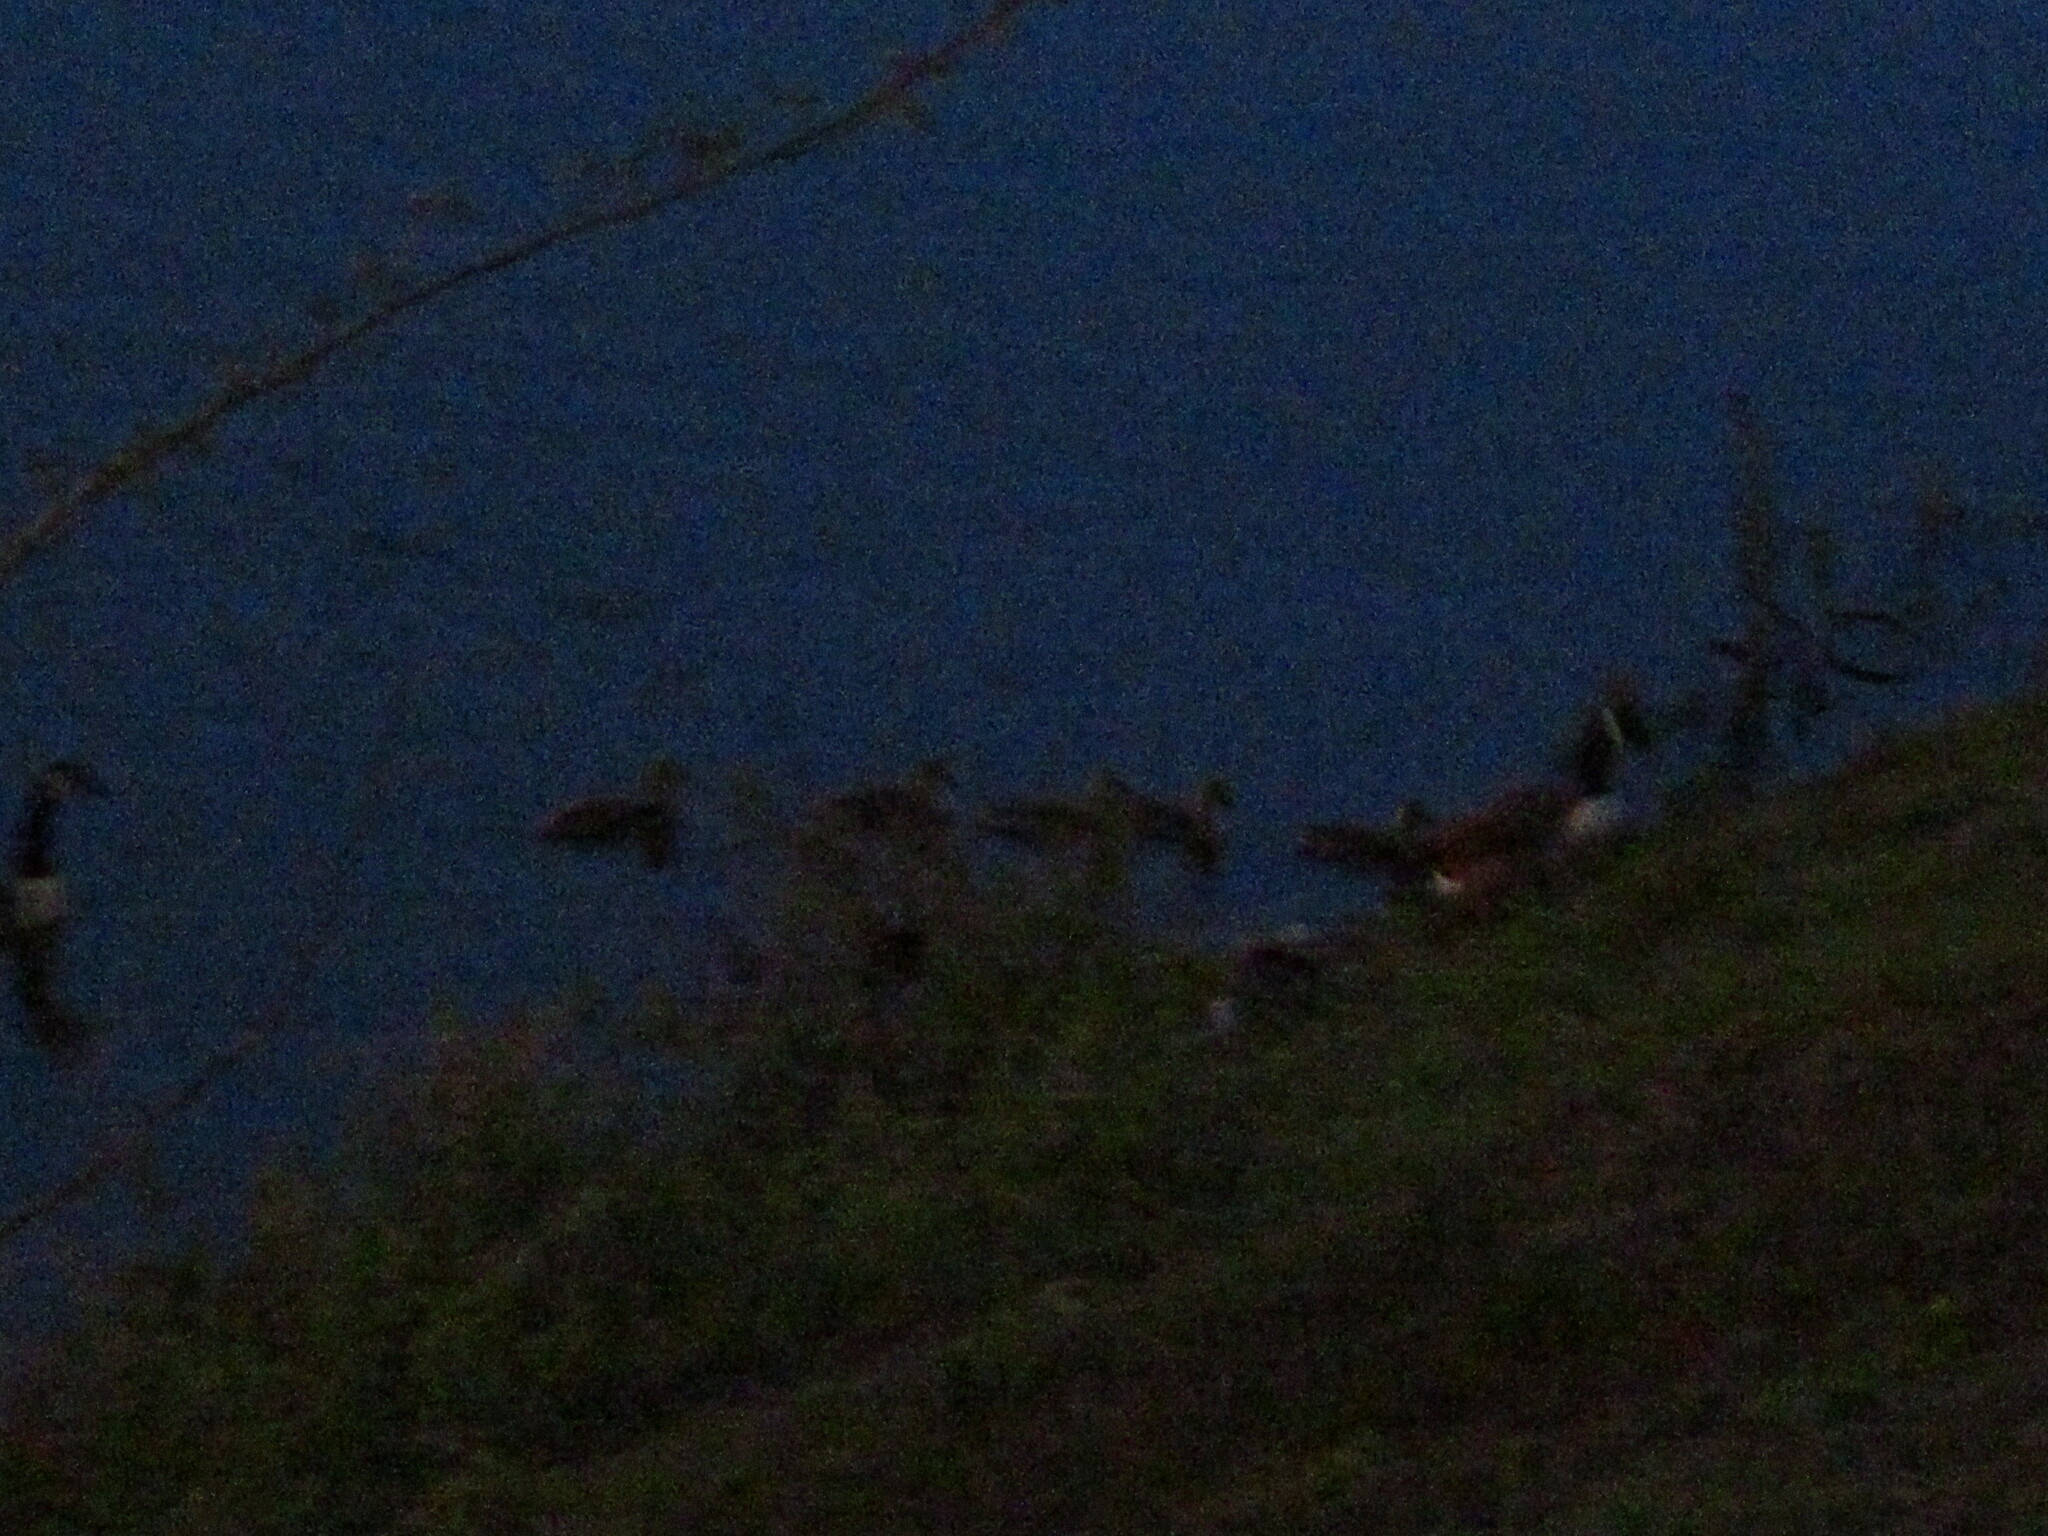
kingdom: Animalia
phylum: Chordata
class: Aves
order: Anseriformes
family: Anatidae
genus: Branta
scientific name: Branta canadensis
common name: Canada goose
